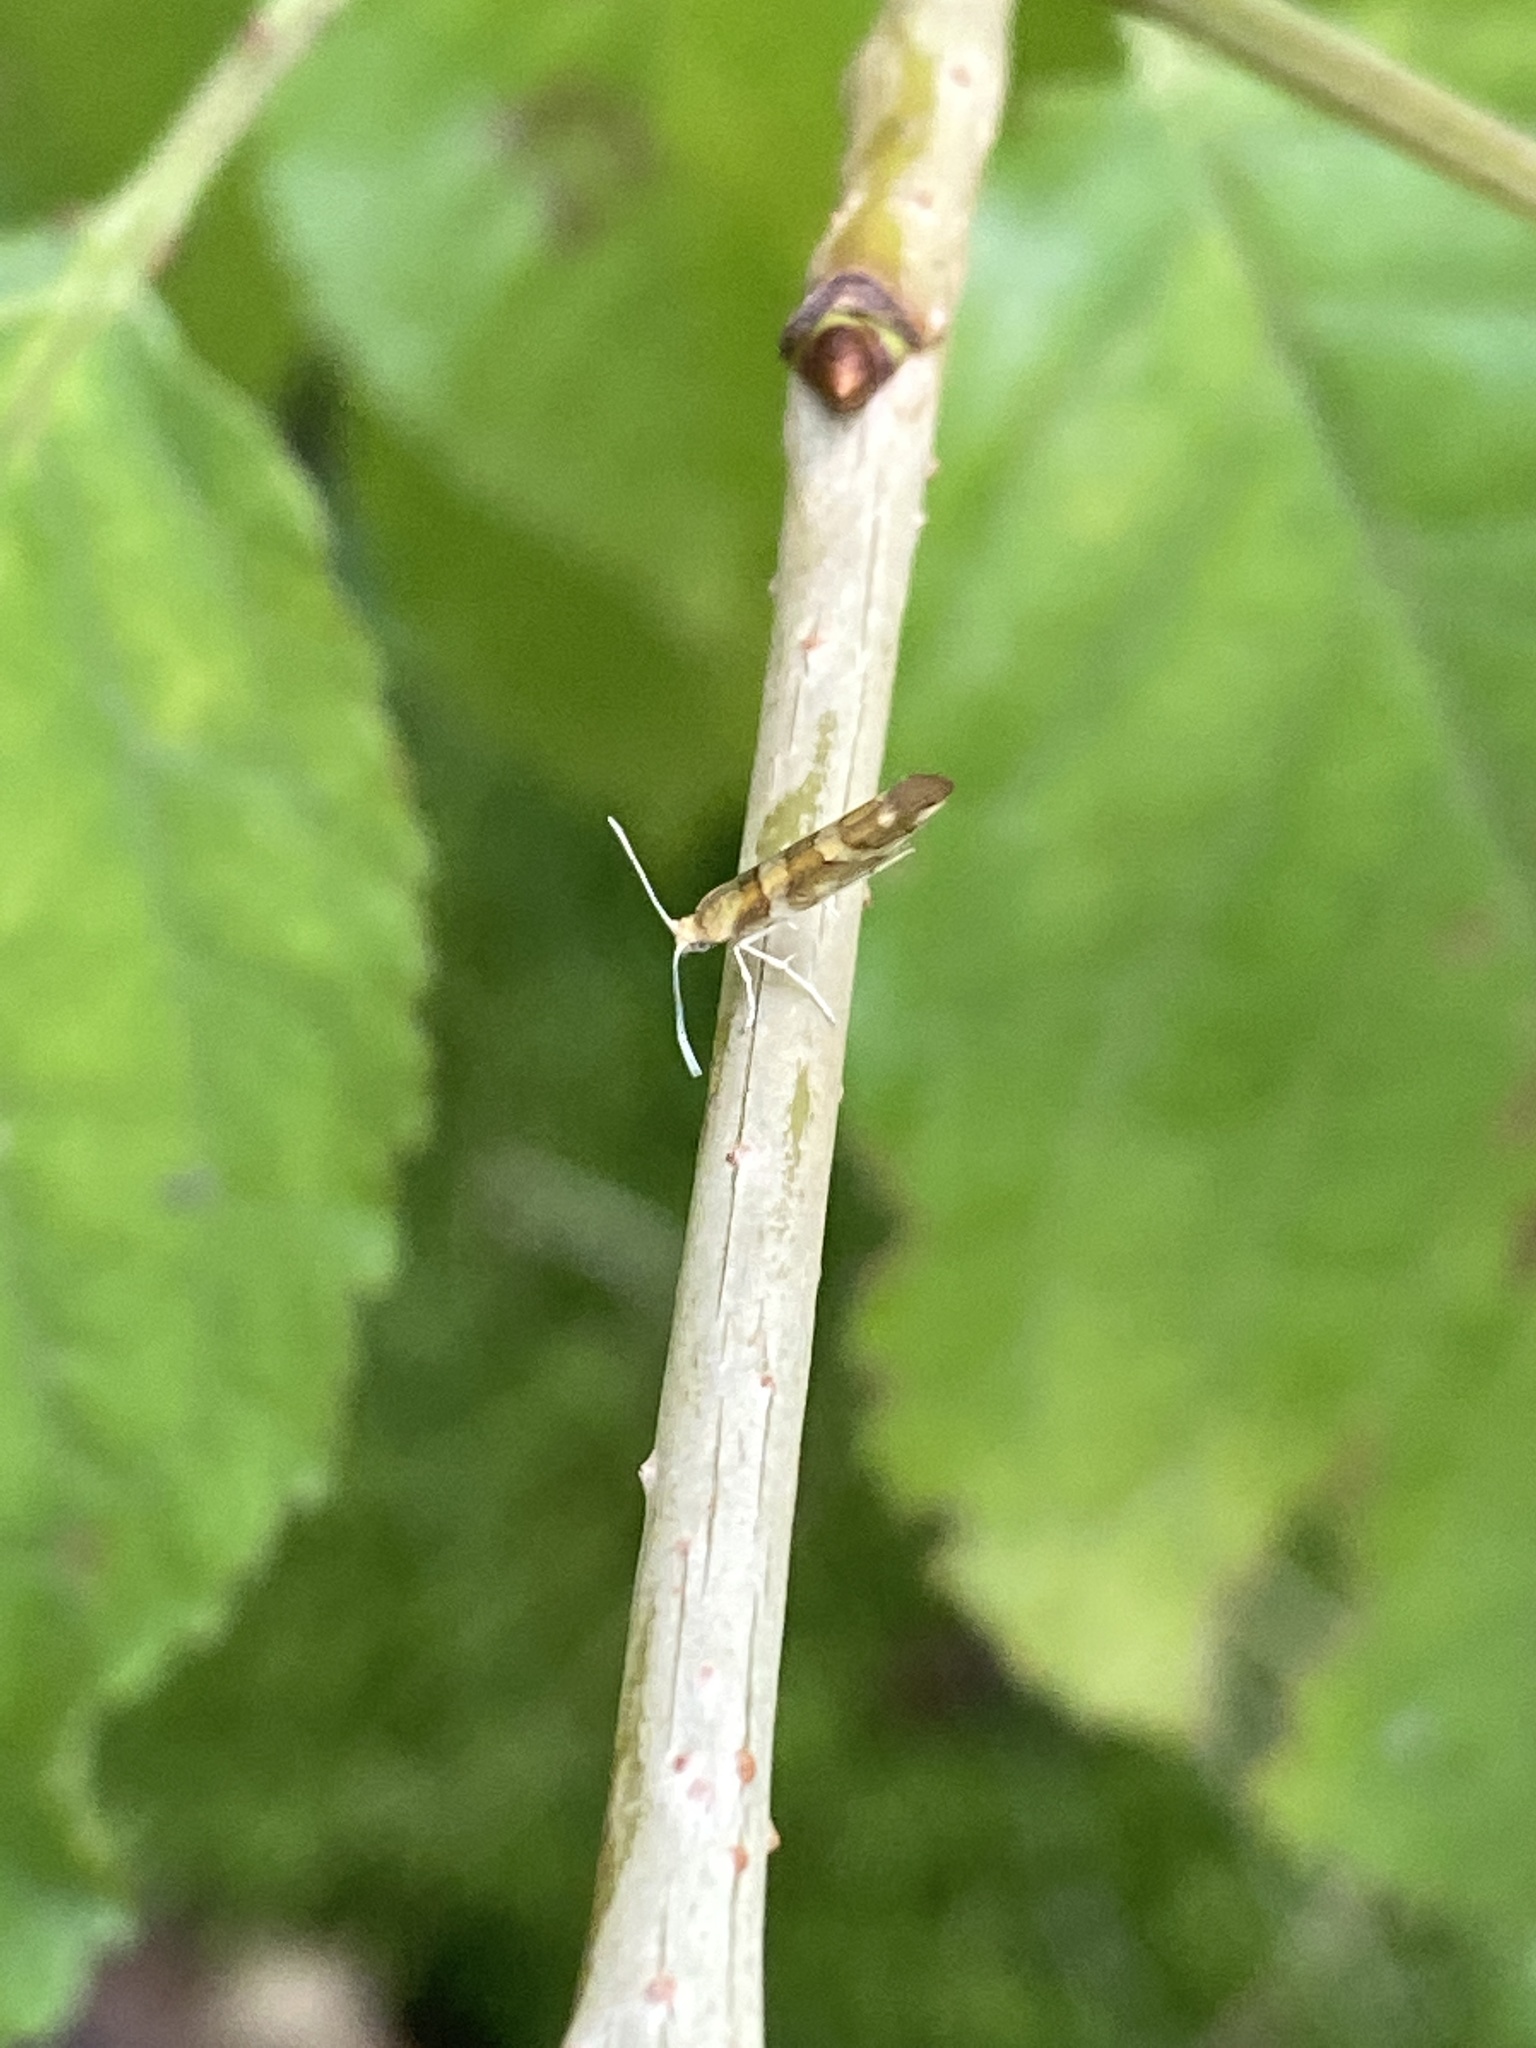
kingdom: Animalia
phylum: Arthropoda
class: Insecta
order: Lepidoptera
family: Argyresthiidae
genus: Argyresthia
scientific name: Argyresthia goedartella
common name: Golden argent
